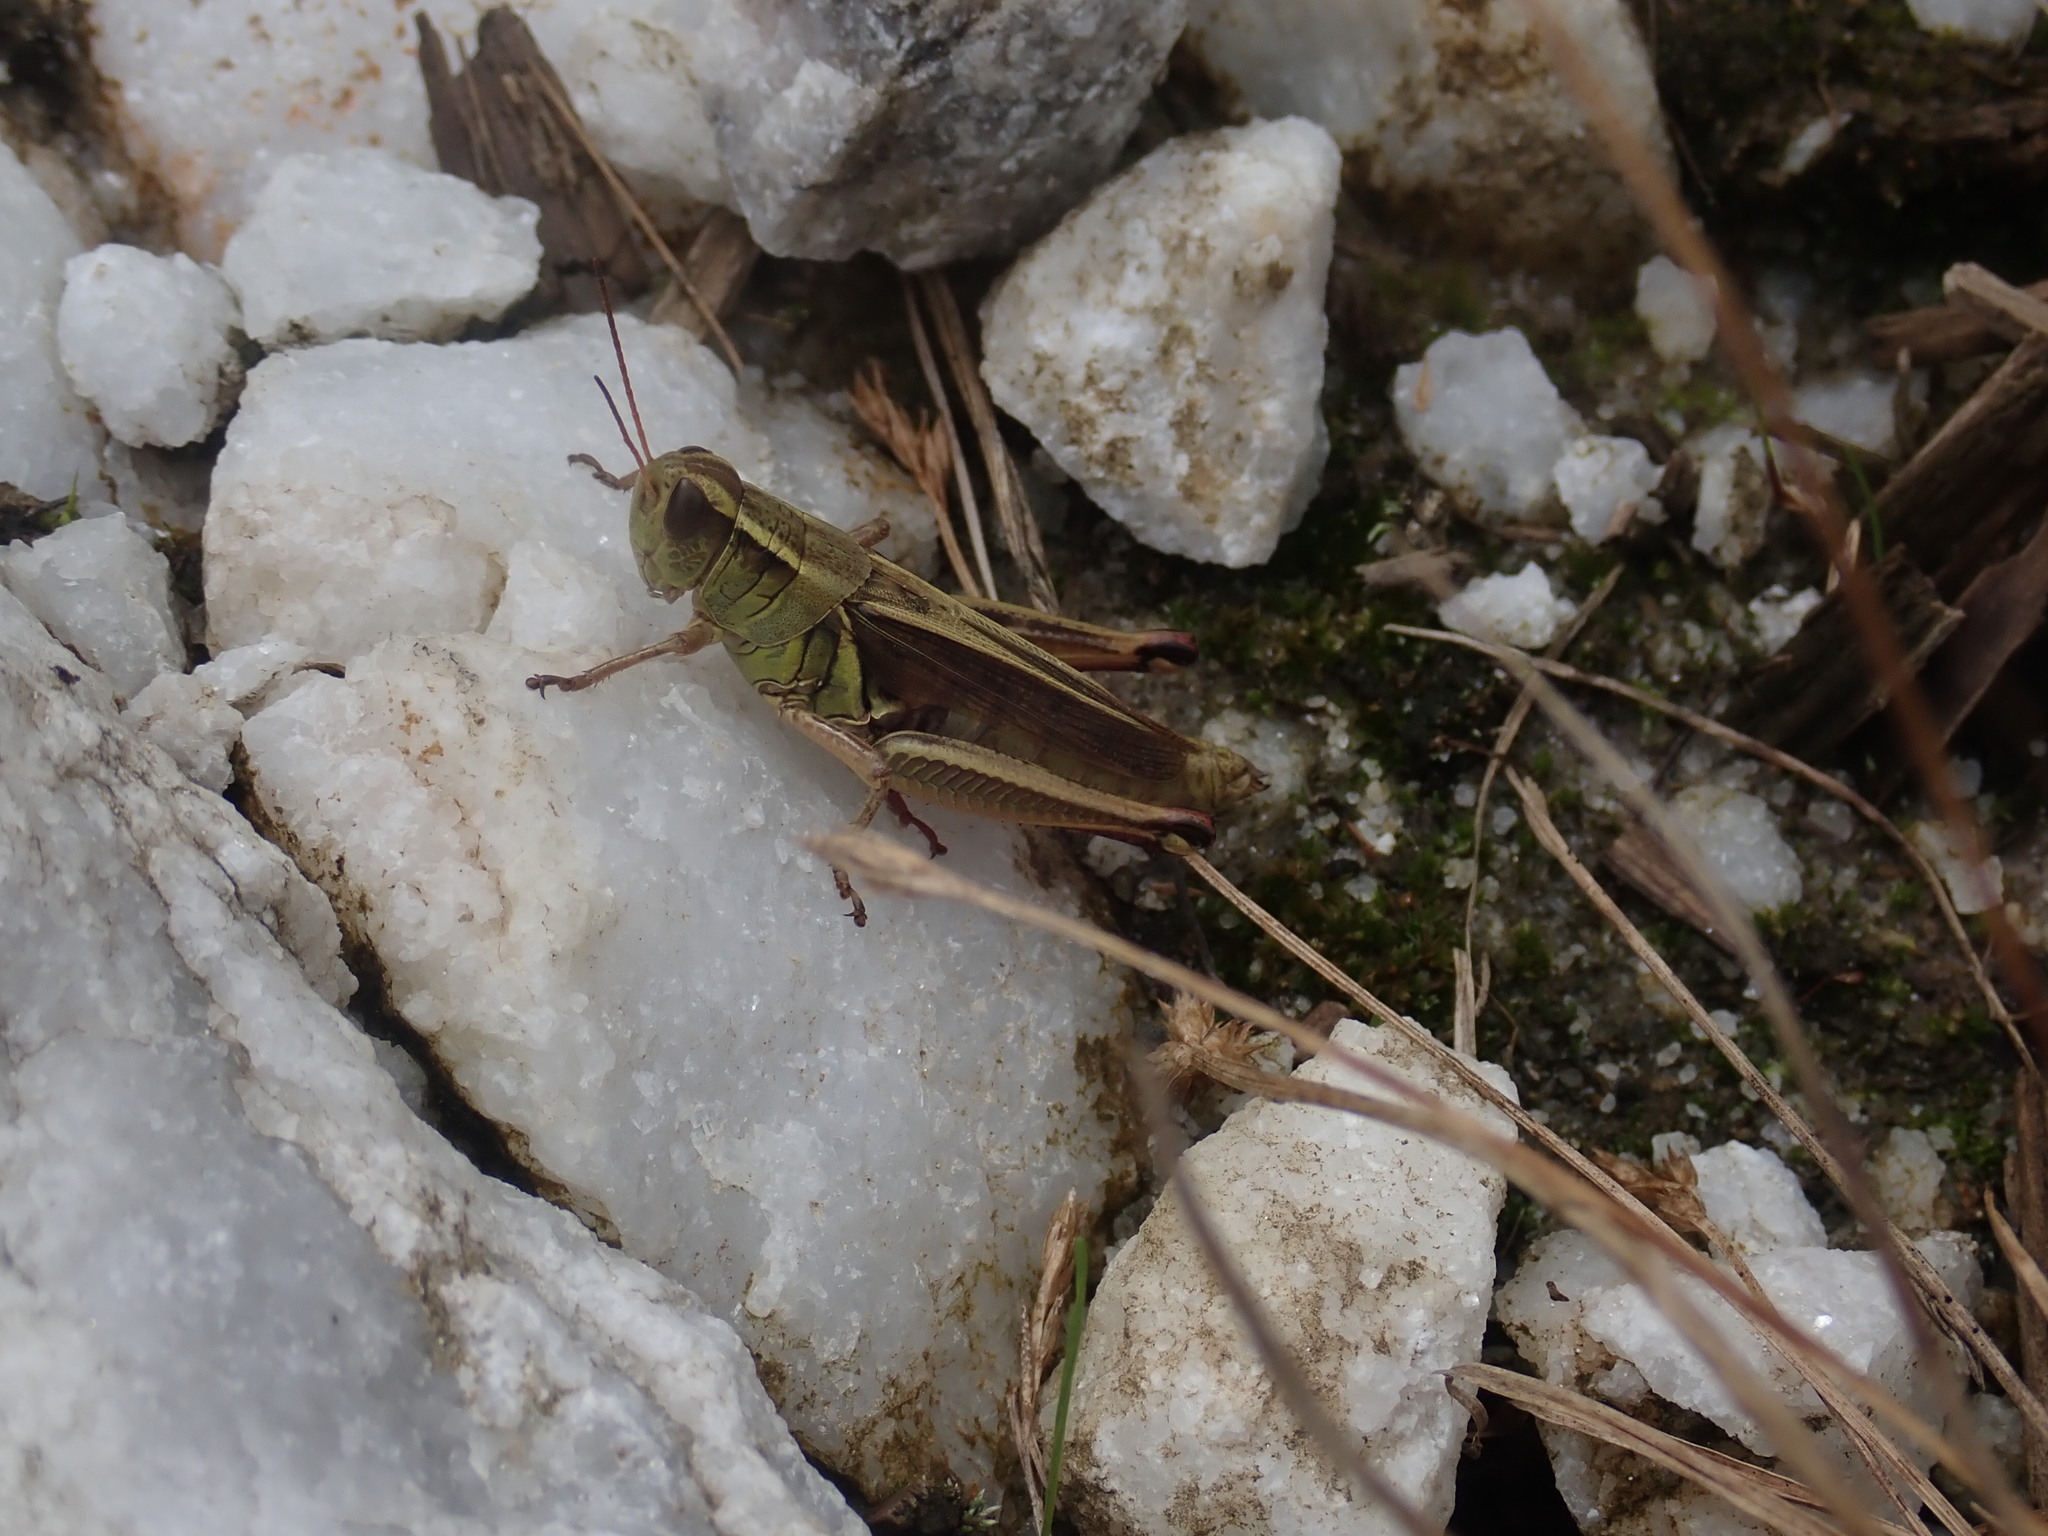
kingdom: Animalia
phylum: Arthropoda
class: Insecta
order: Orthoptera
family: Acrididae
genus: Melanoplus
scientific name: Melanoplus bivittatus
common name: Two-striped grasshopper
